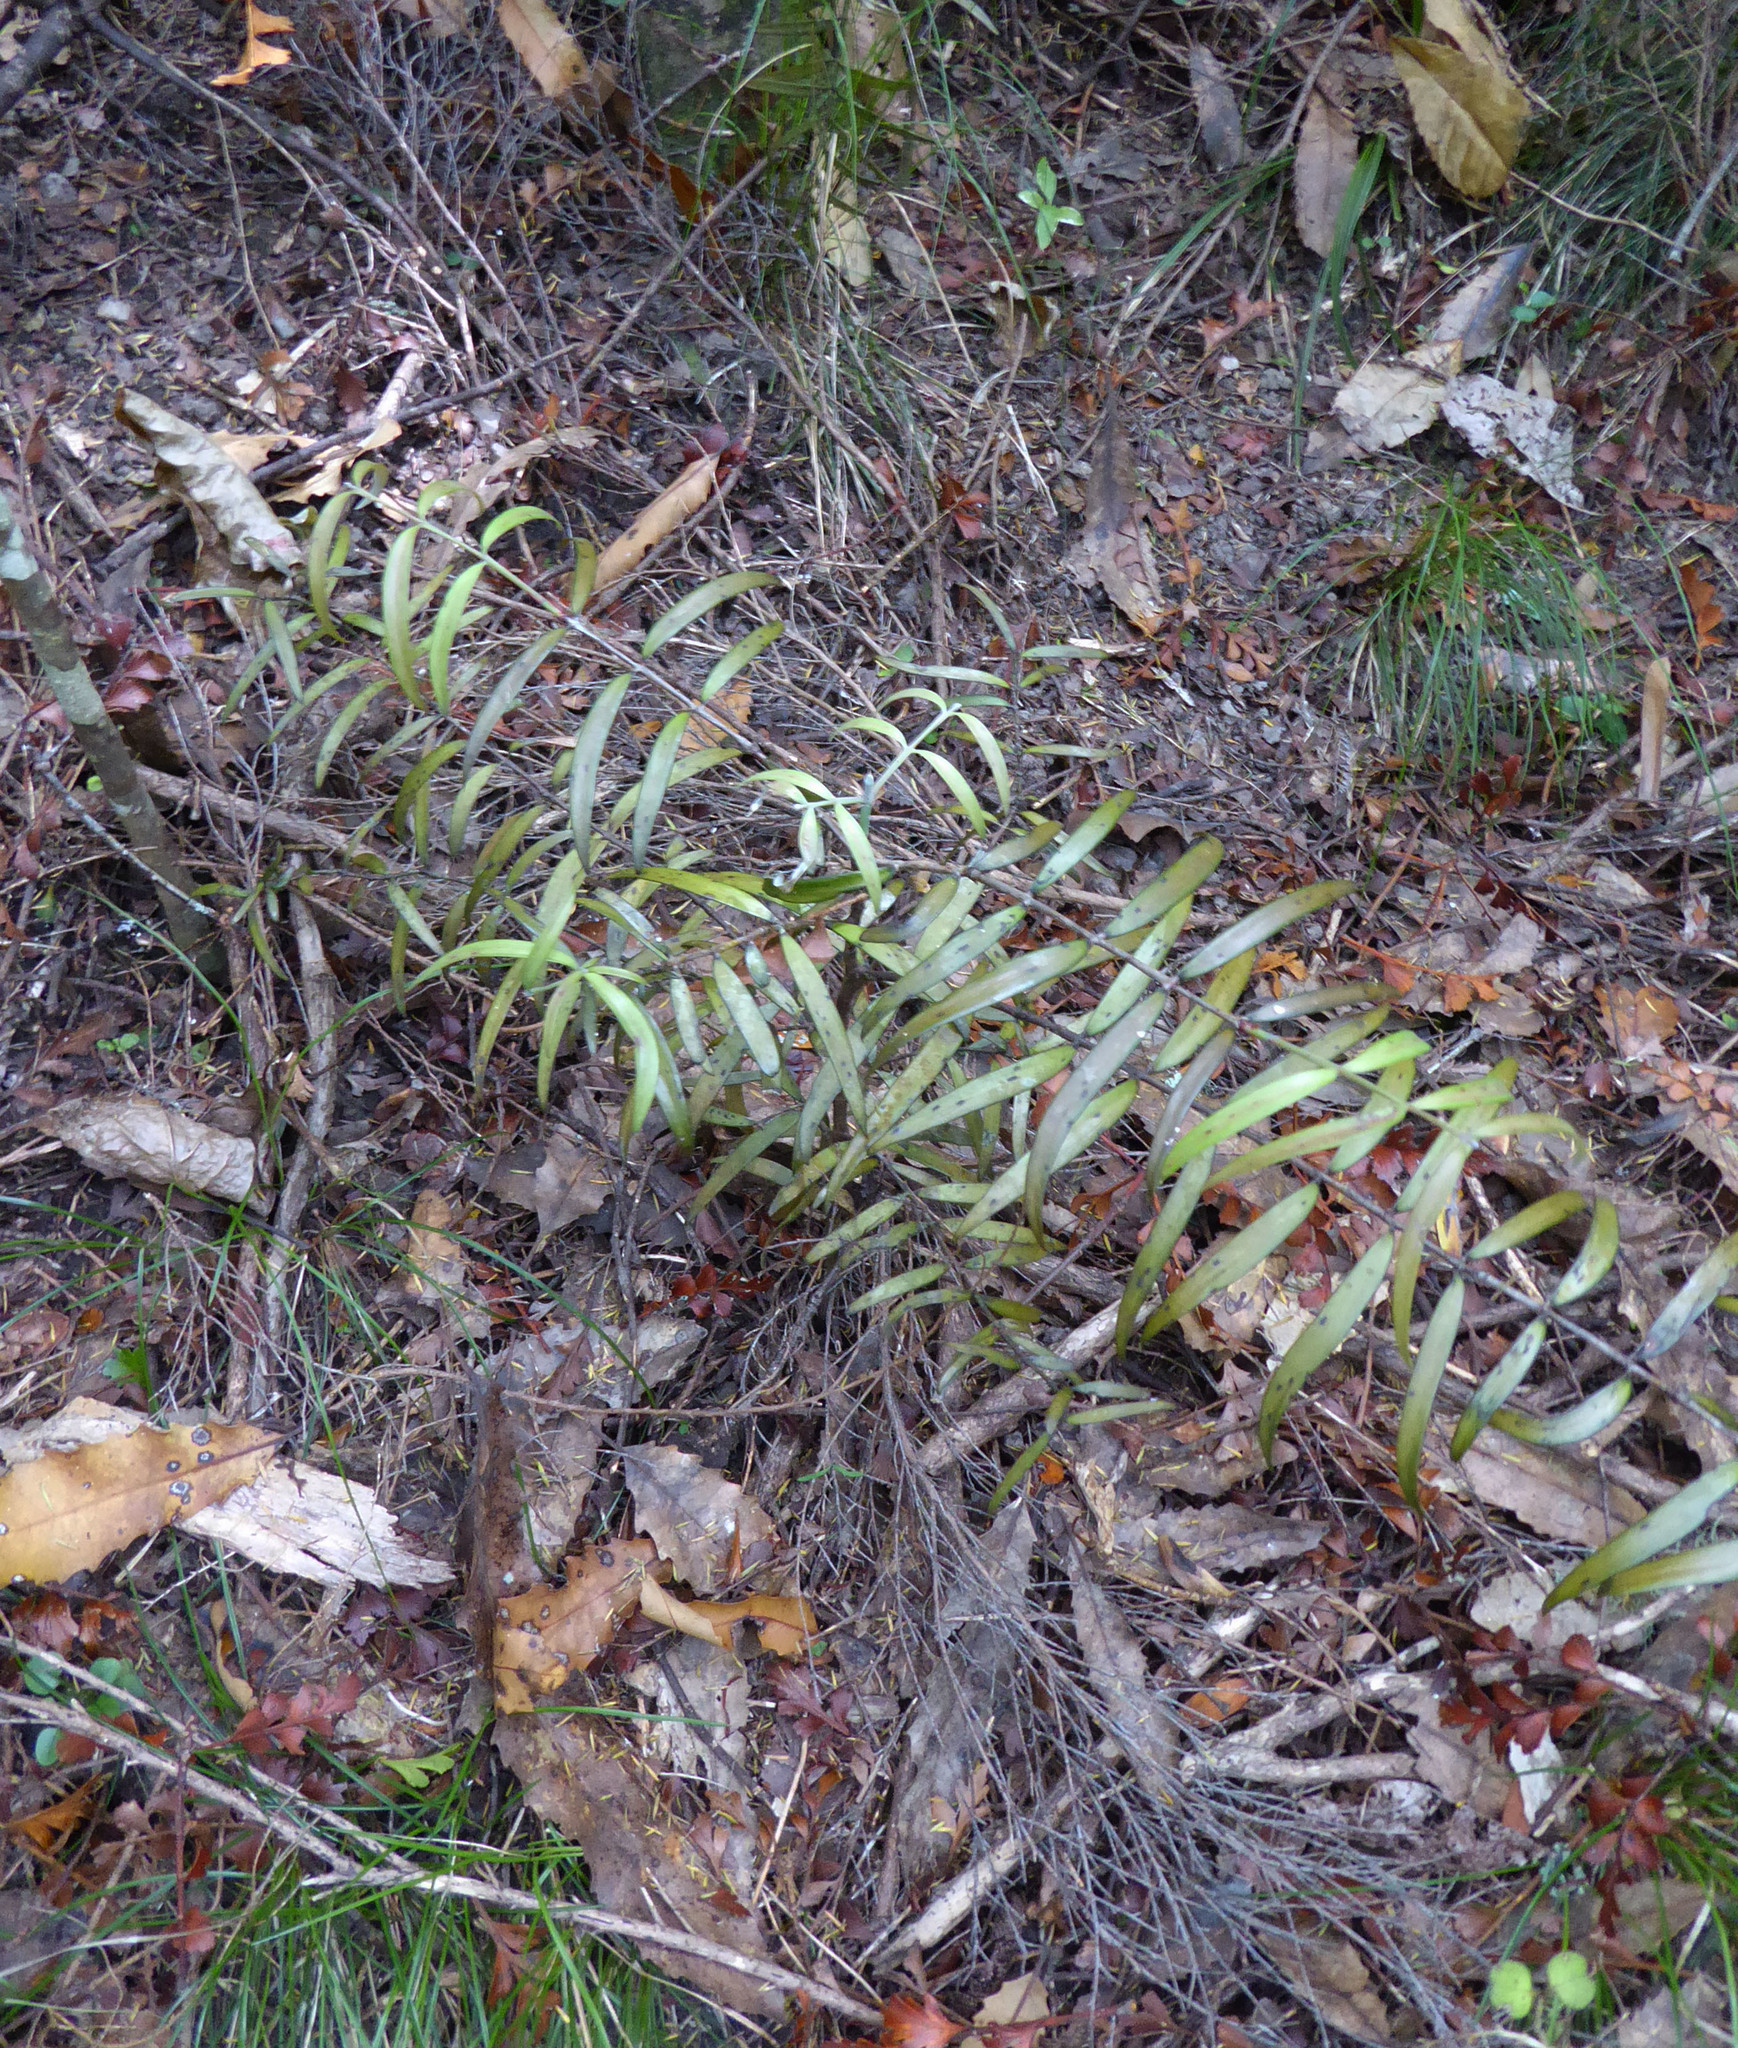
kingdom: Plantae
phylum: Tracheophyta
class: Pinopsida
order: Pinales
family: Araucariaceae
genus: Agathis
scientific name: Agathis australis
